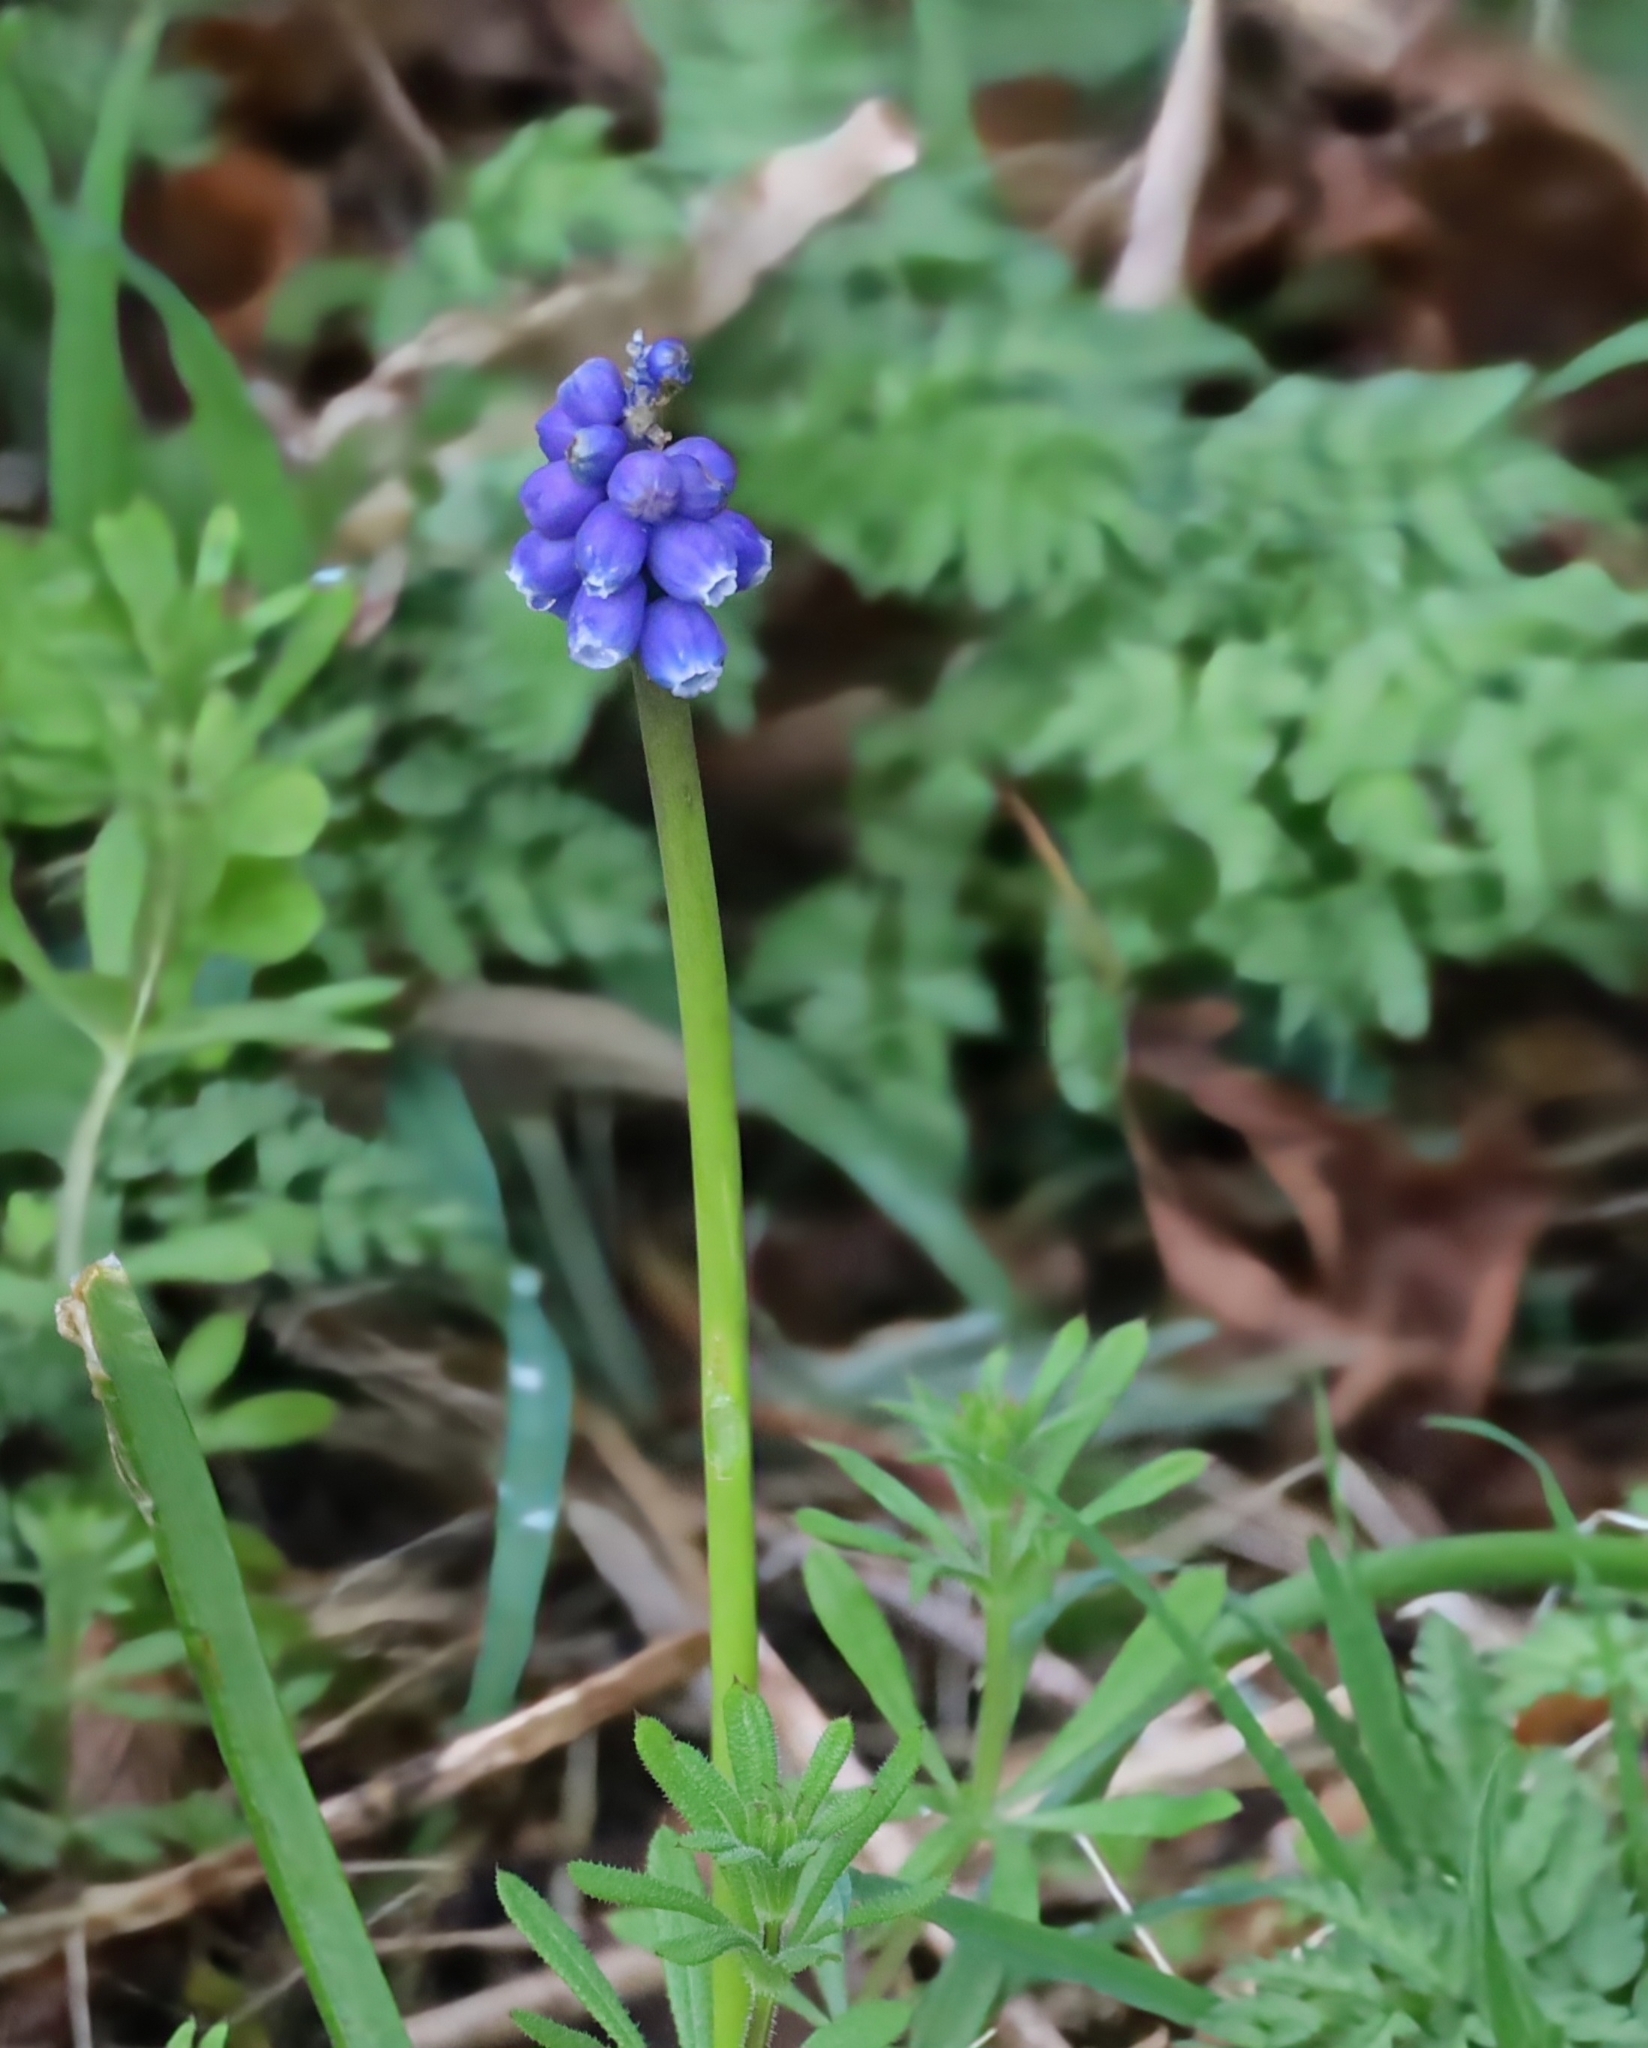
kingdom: Plantae
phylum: Tracheophyta
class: Liliopsida
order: Asparagales
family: Asparagaceae
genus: Muscari
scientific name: Muscari armeniacum
